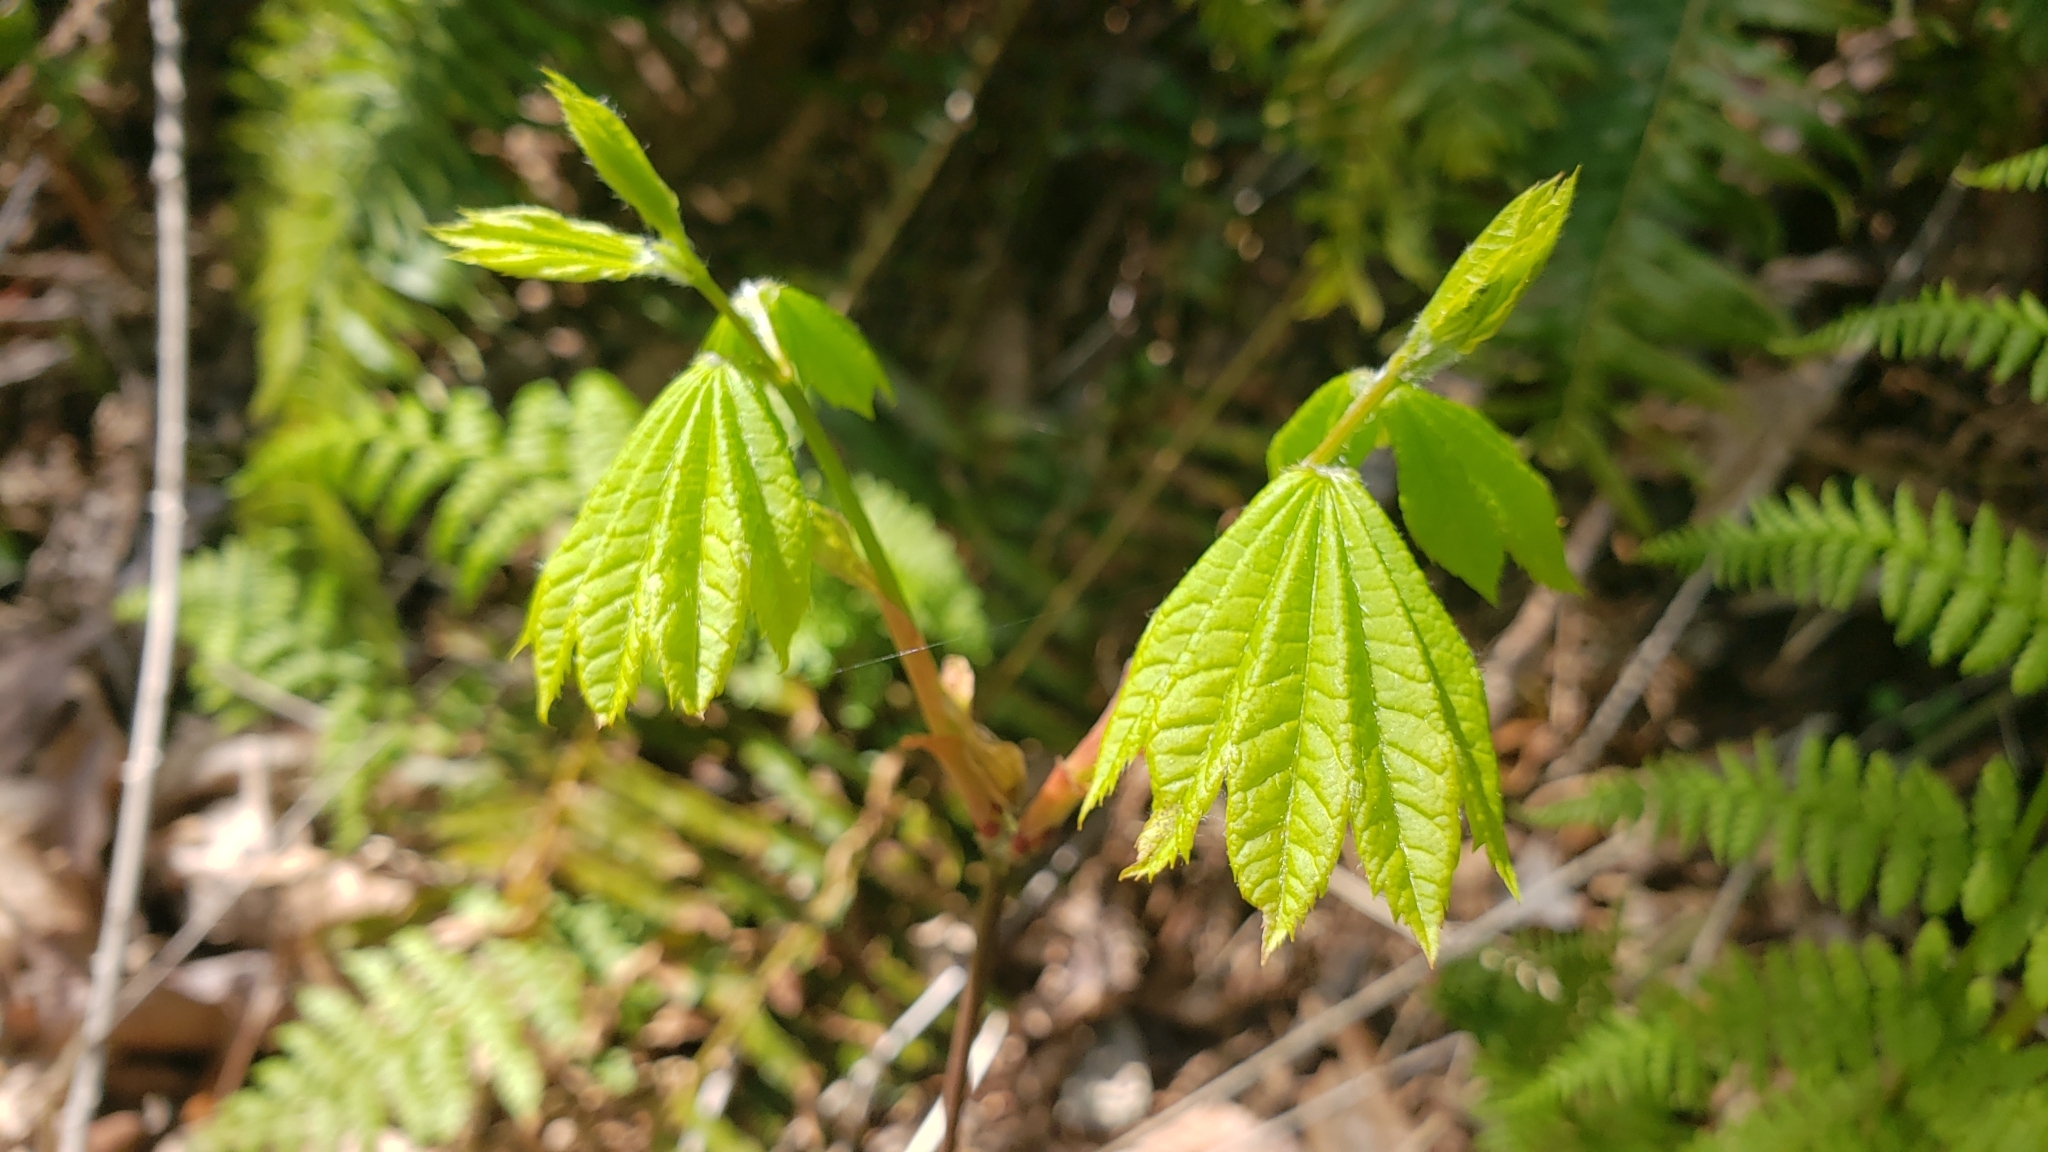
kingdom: Plantae
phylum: Tracheophyta
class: Magnoliopsida
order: Sapindales
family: Sapindaceae
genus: Acer
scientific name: Acer circinatum
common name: Vine maple
